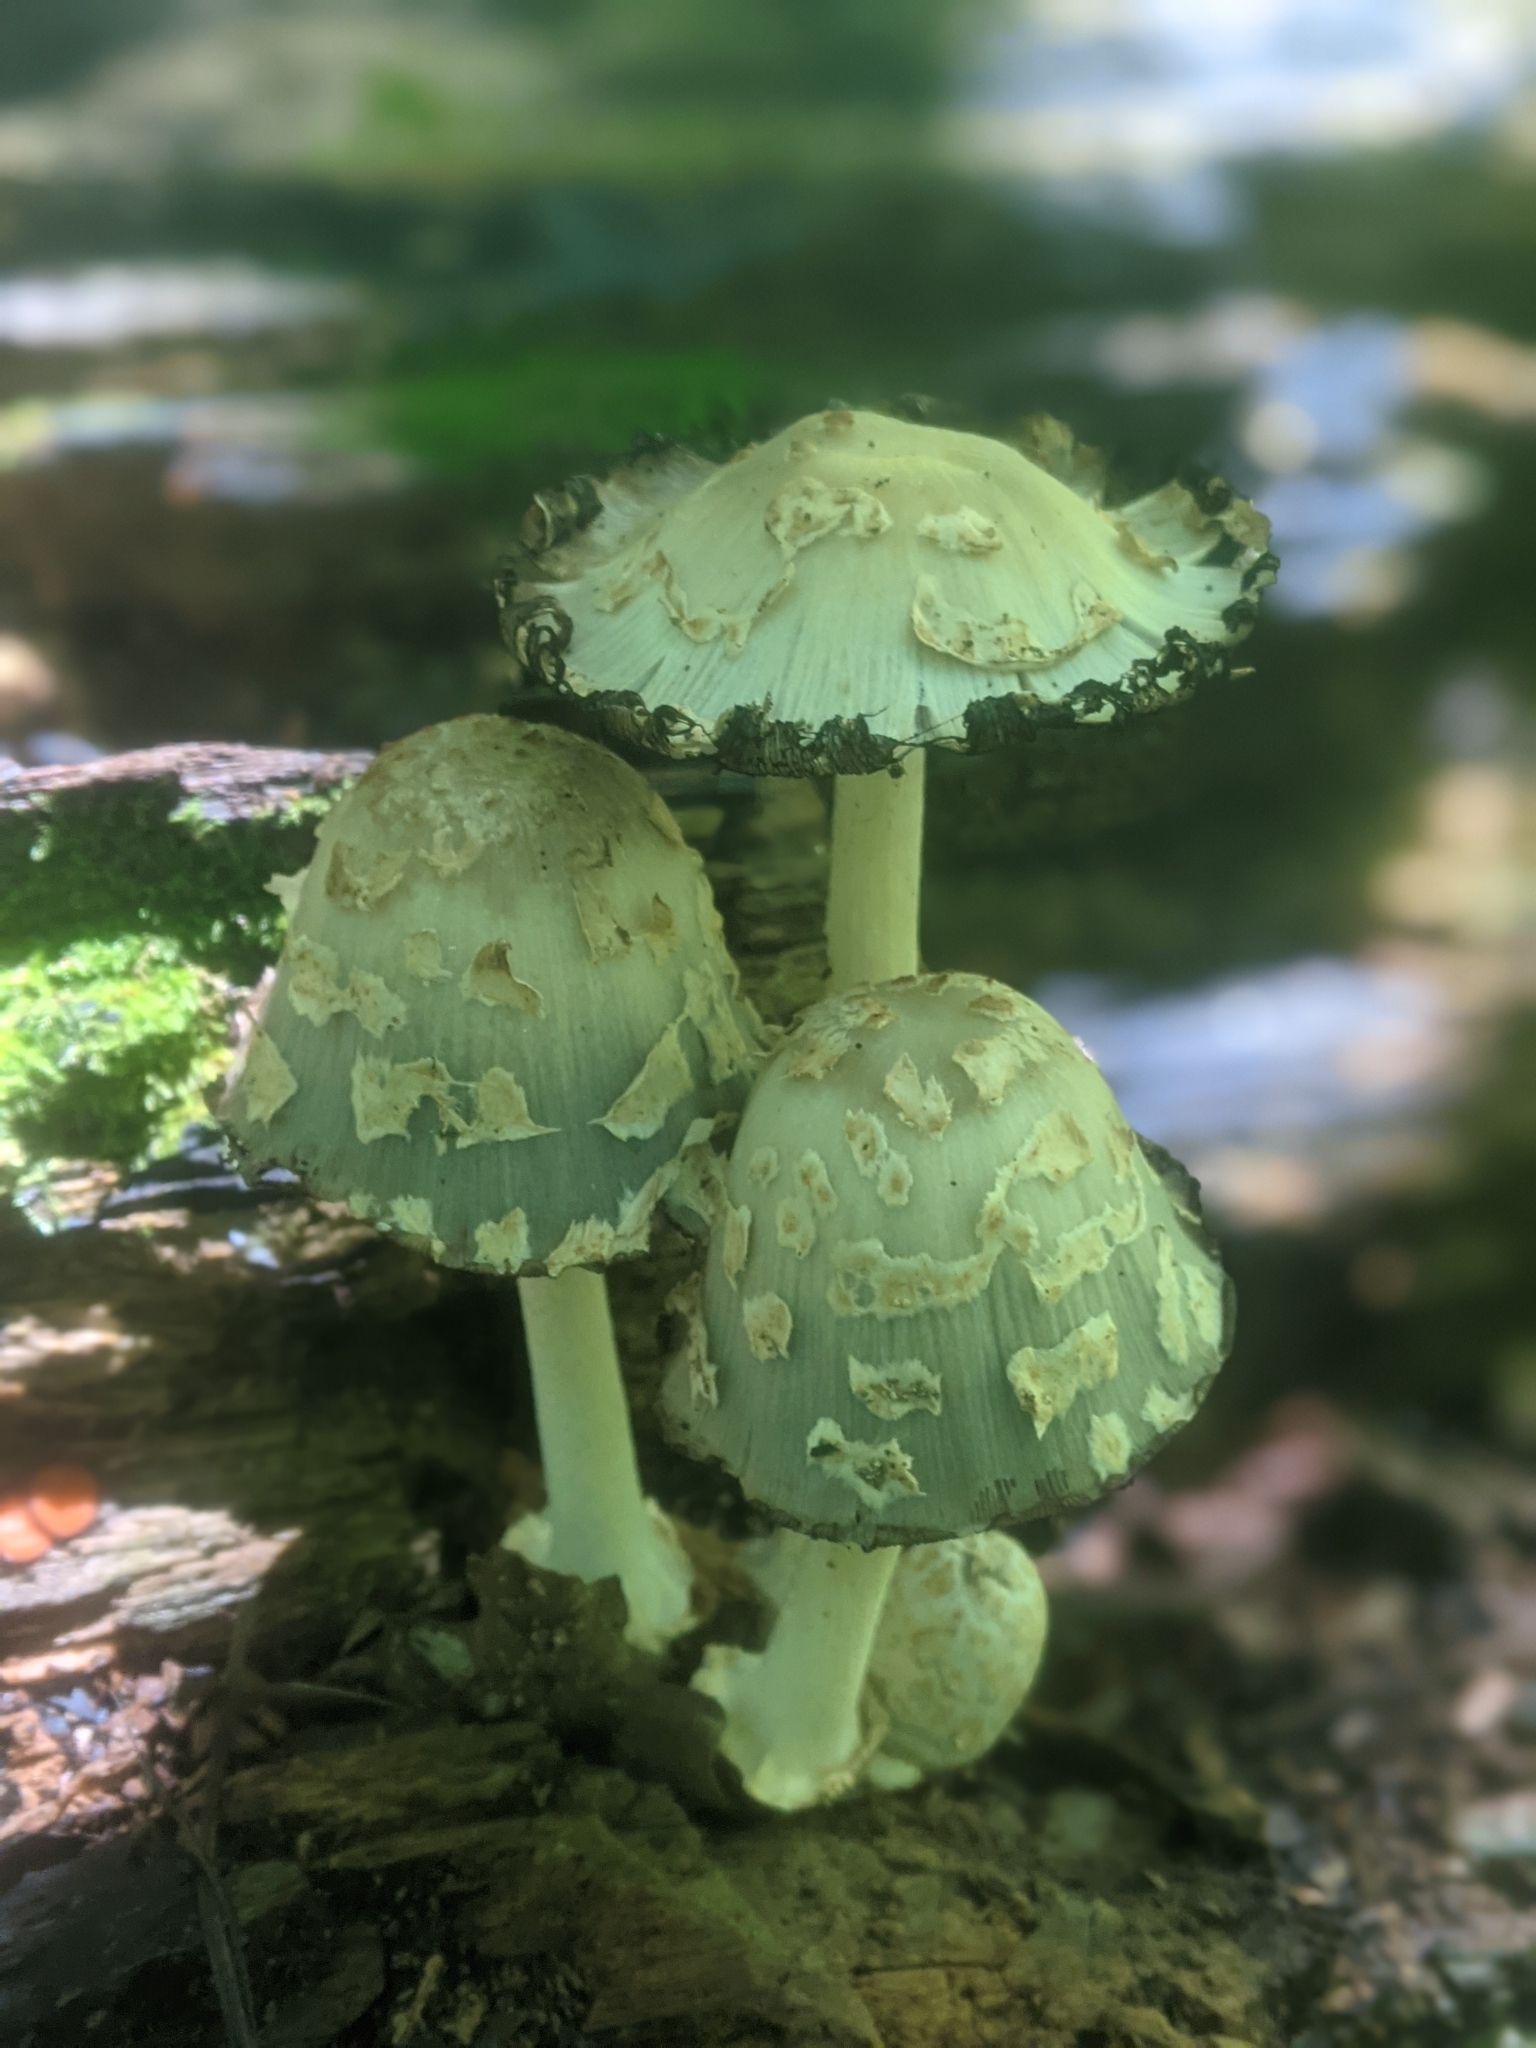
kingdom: Fungi
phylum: Basidiomycota
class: Agaricomycetes
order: Agaricales
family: Psathyrellaceae
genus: Coprinopsis
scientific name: Coprinopsis variegata
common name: Scaly ink cap
